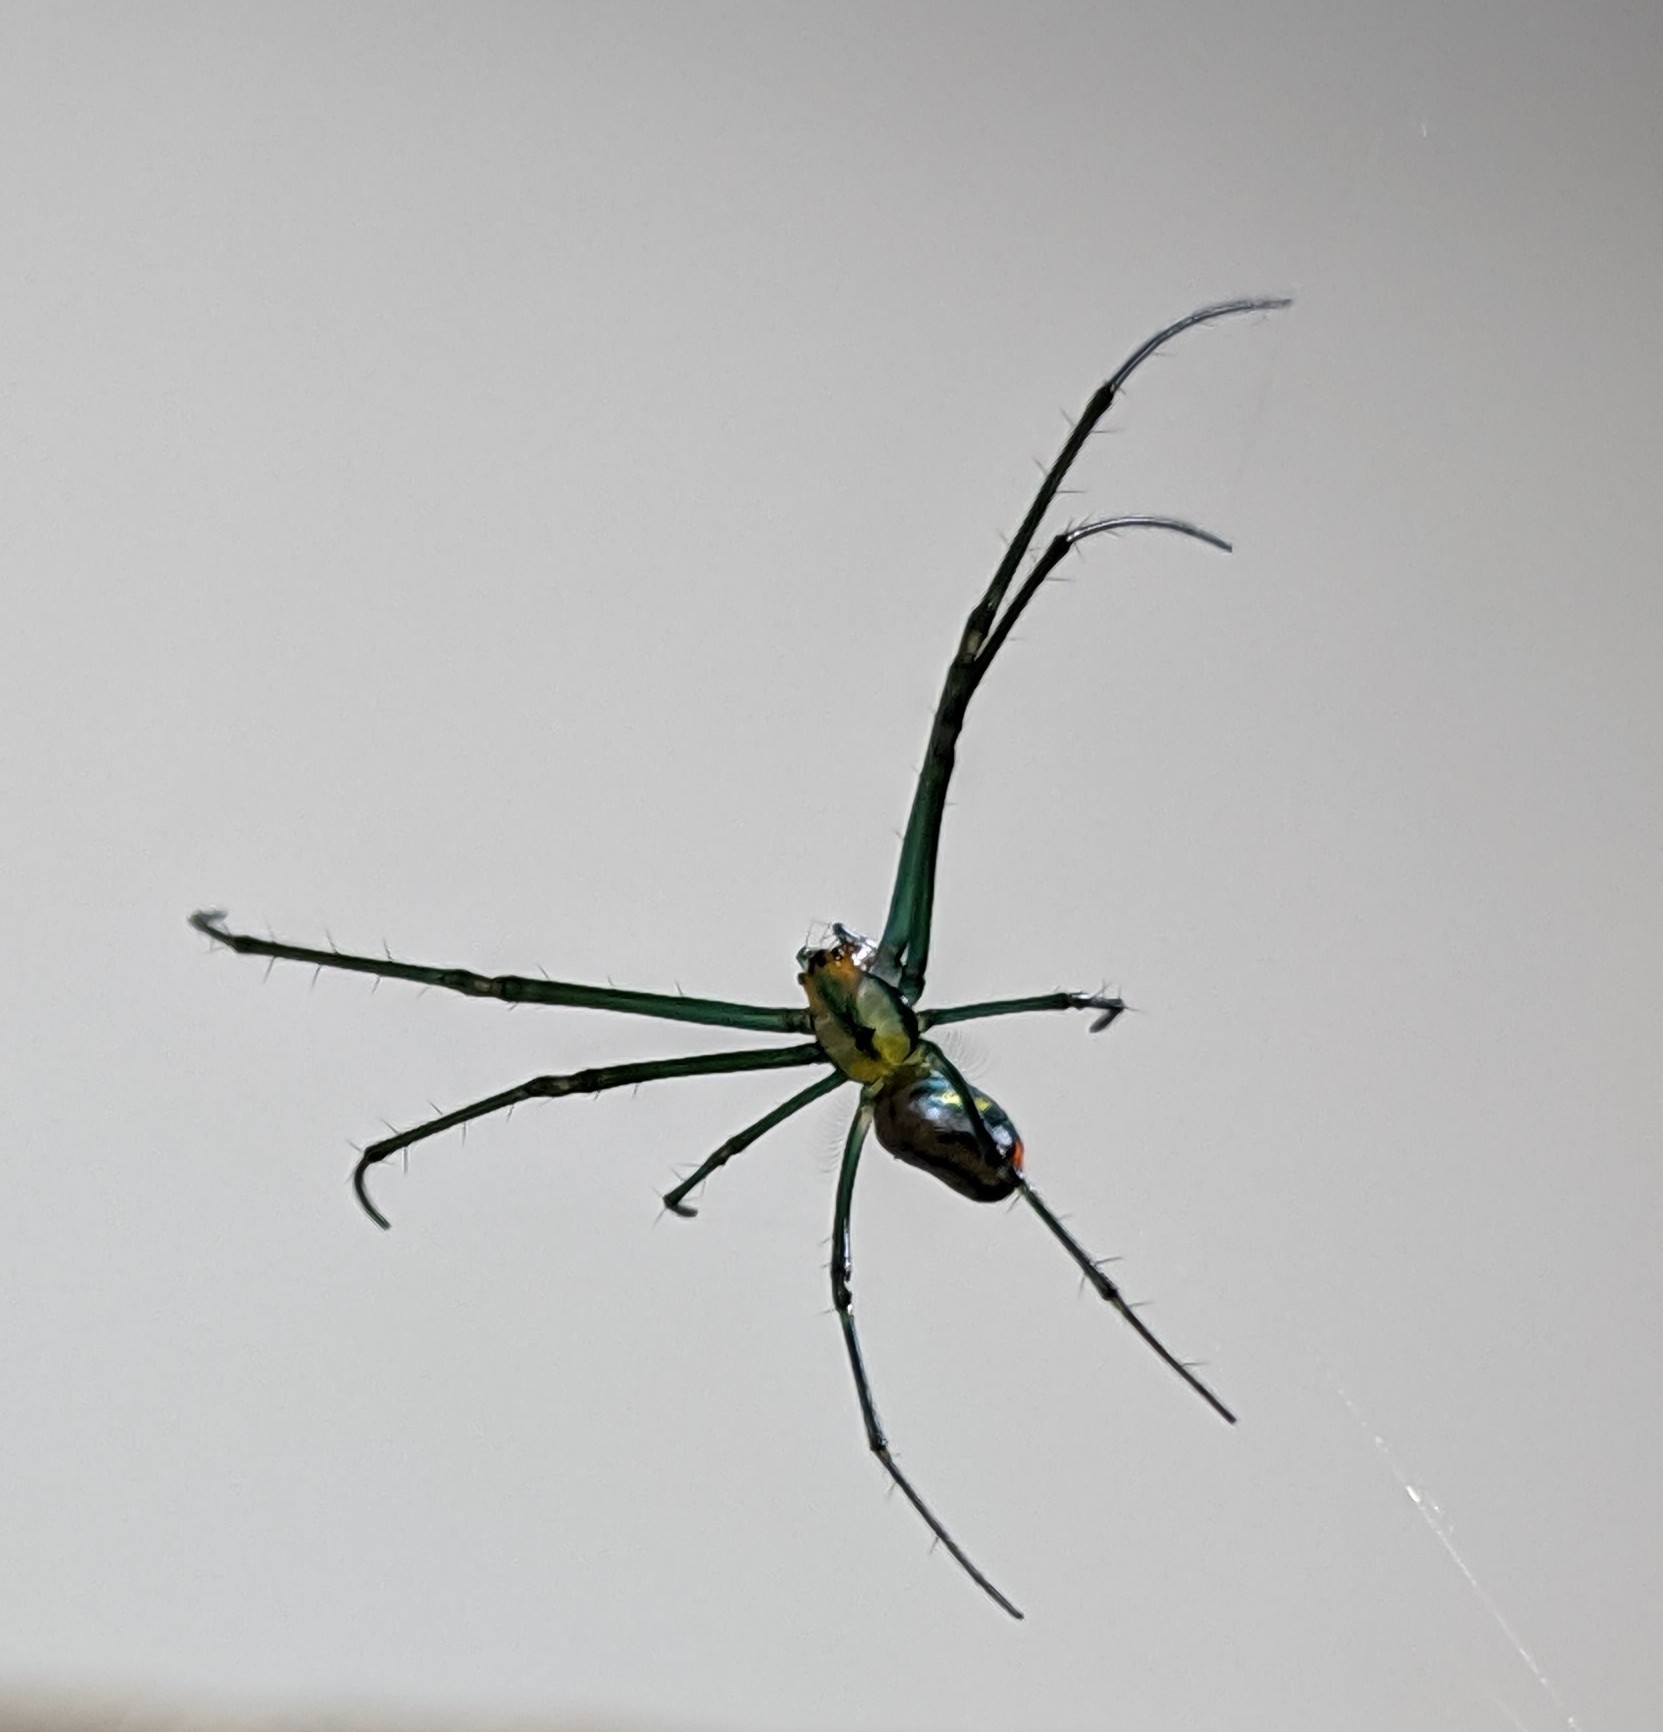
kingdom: Animalia
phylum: Arthropoda
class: Arachnida
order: Araneae
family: Tetragnathidae
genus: Leucauge
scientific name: Leucauge argyrobapta
